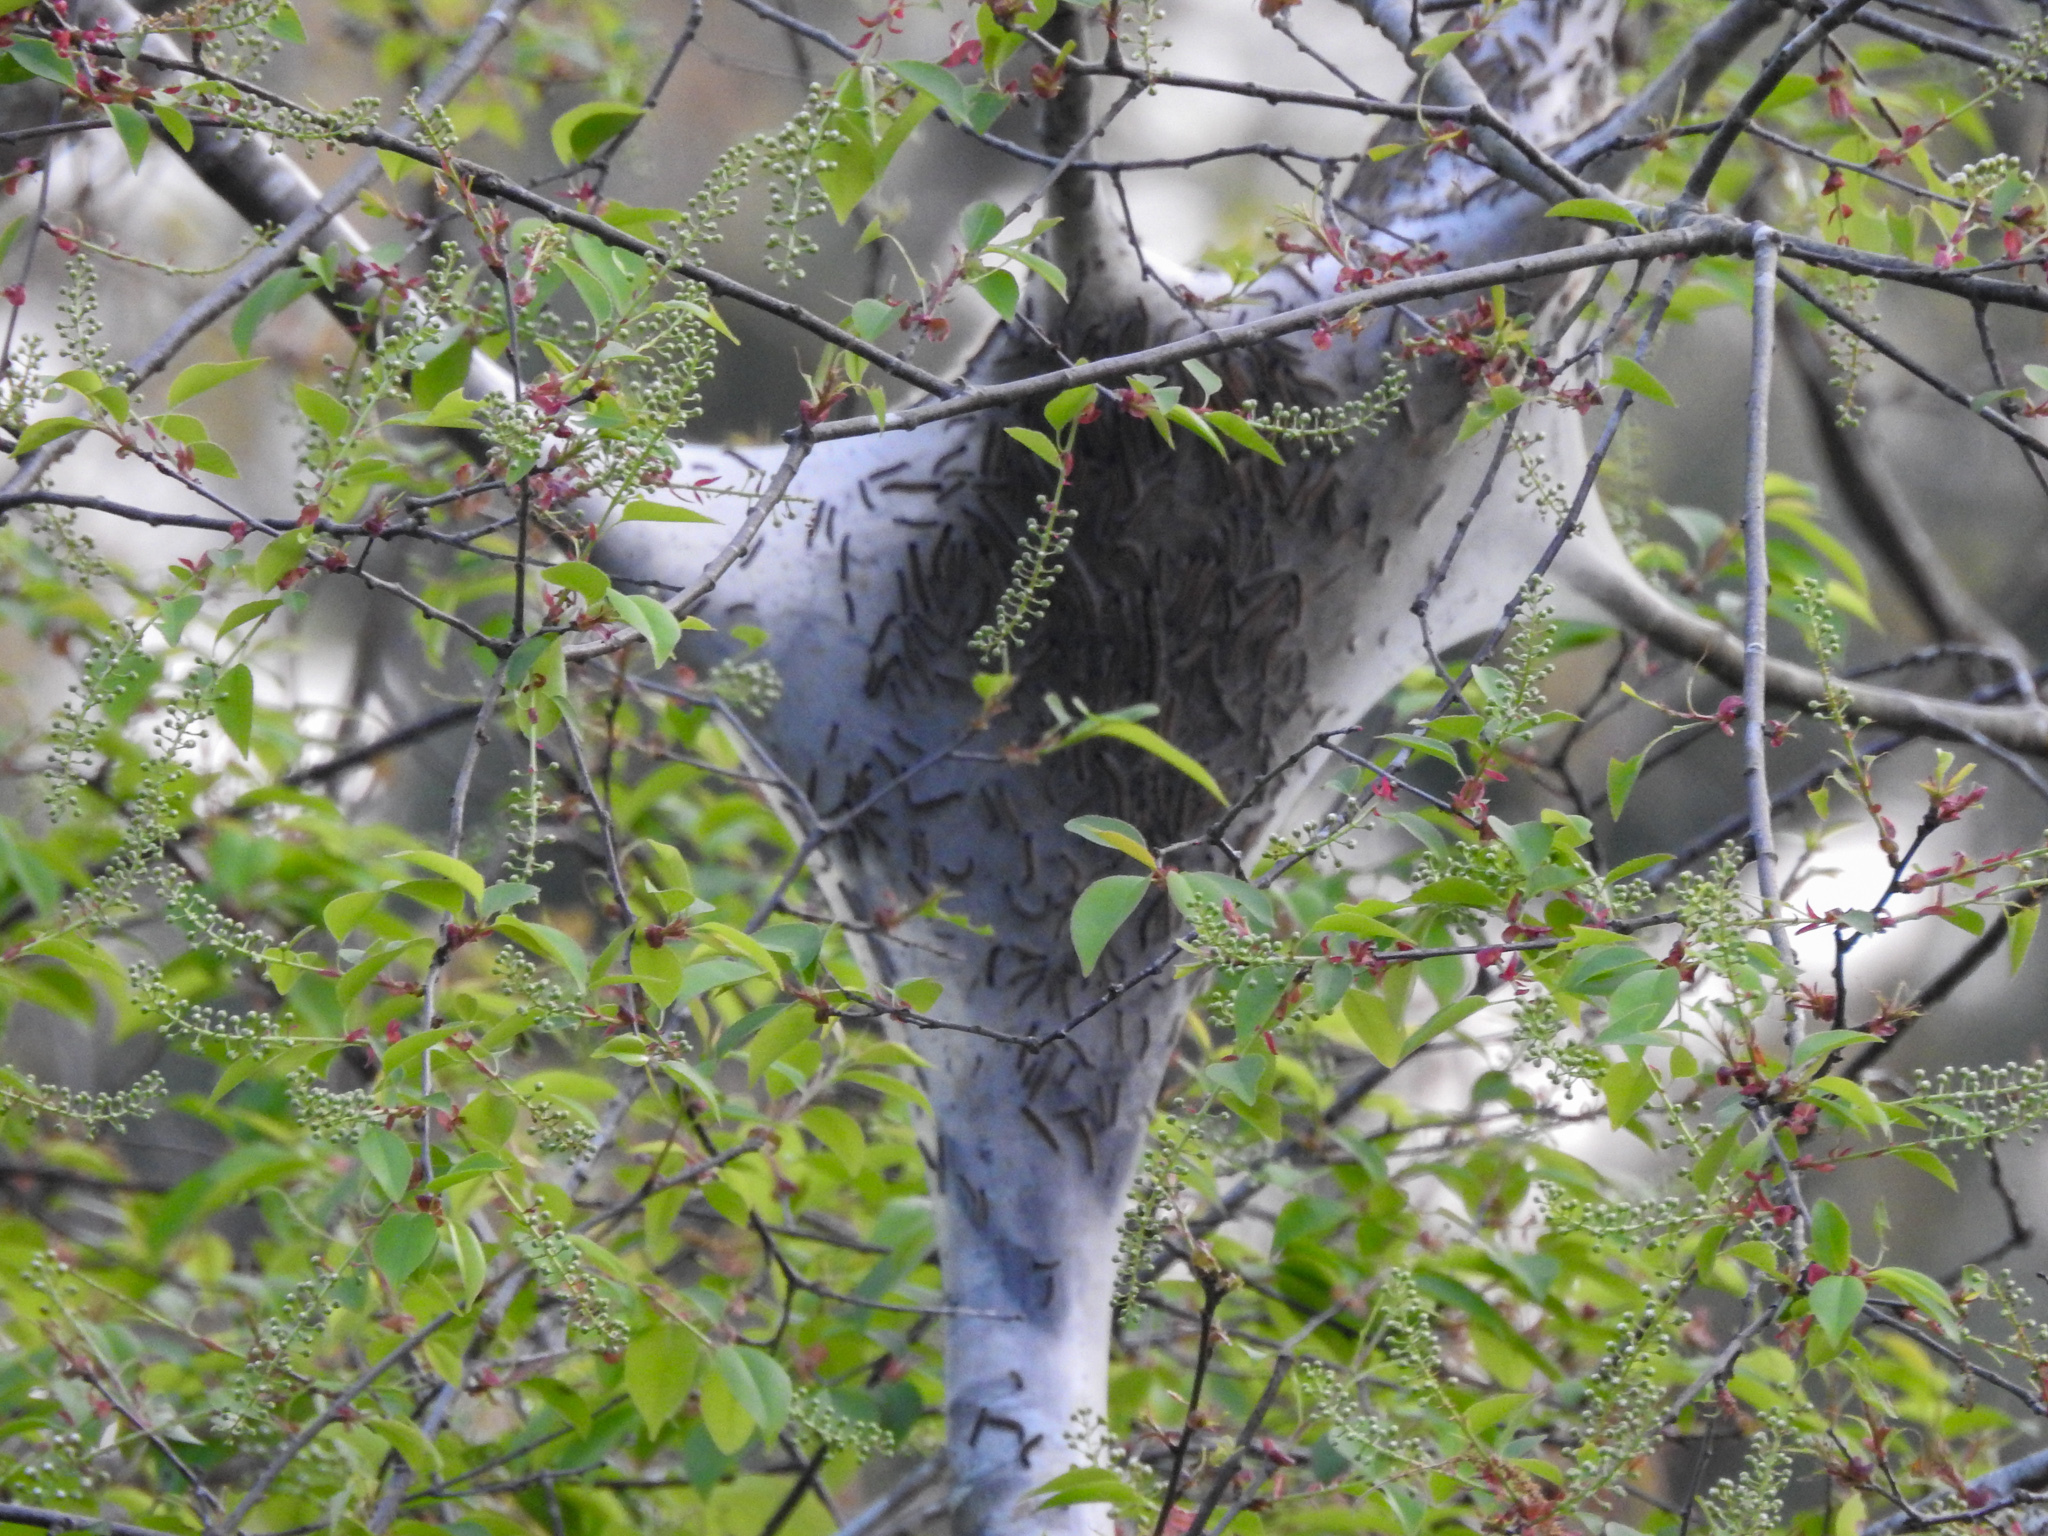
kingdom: Animalia
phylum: Arthropoda
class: Insecta
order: Lepidoptera
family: Lasiocampidae
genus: Malacosoma
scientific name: Malacosoma americana
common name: Eastern tent caterpillar moth
